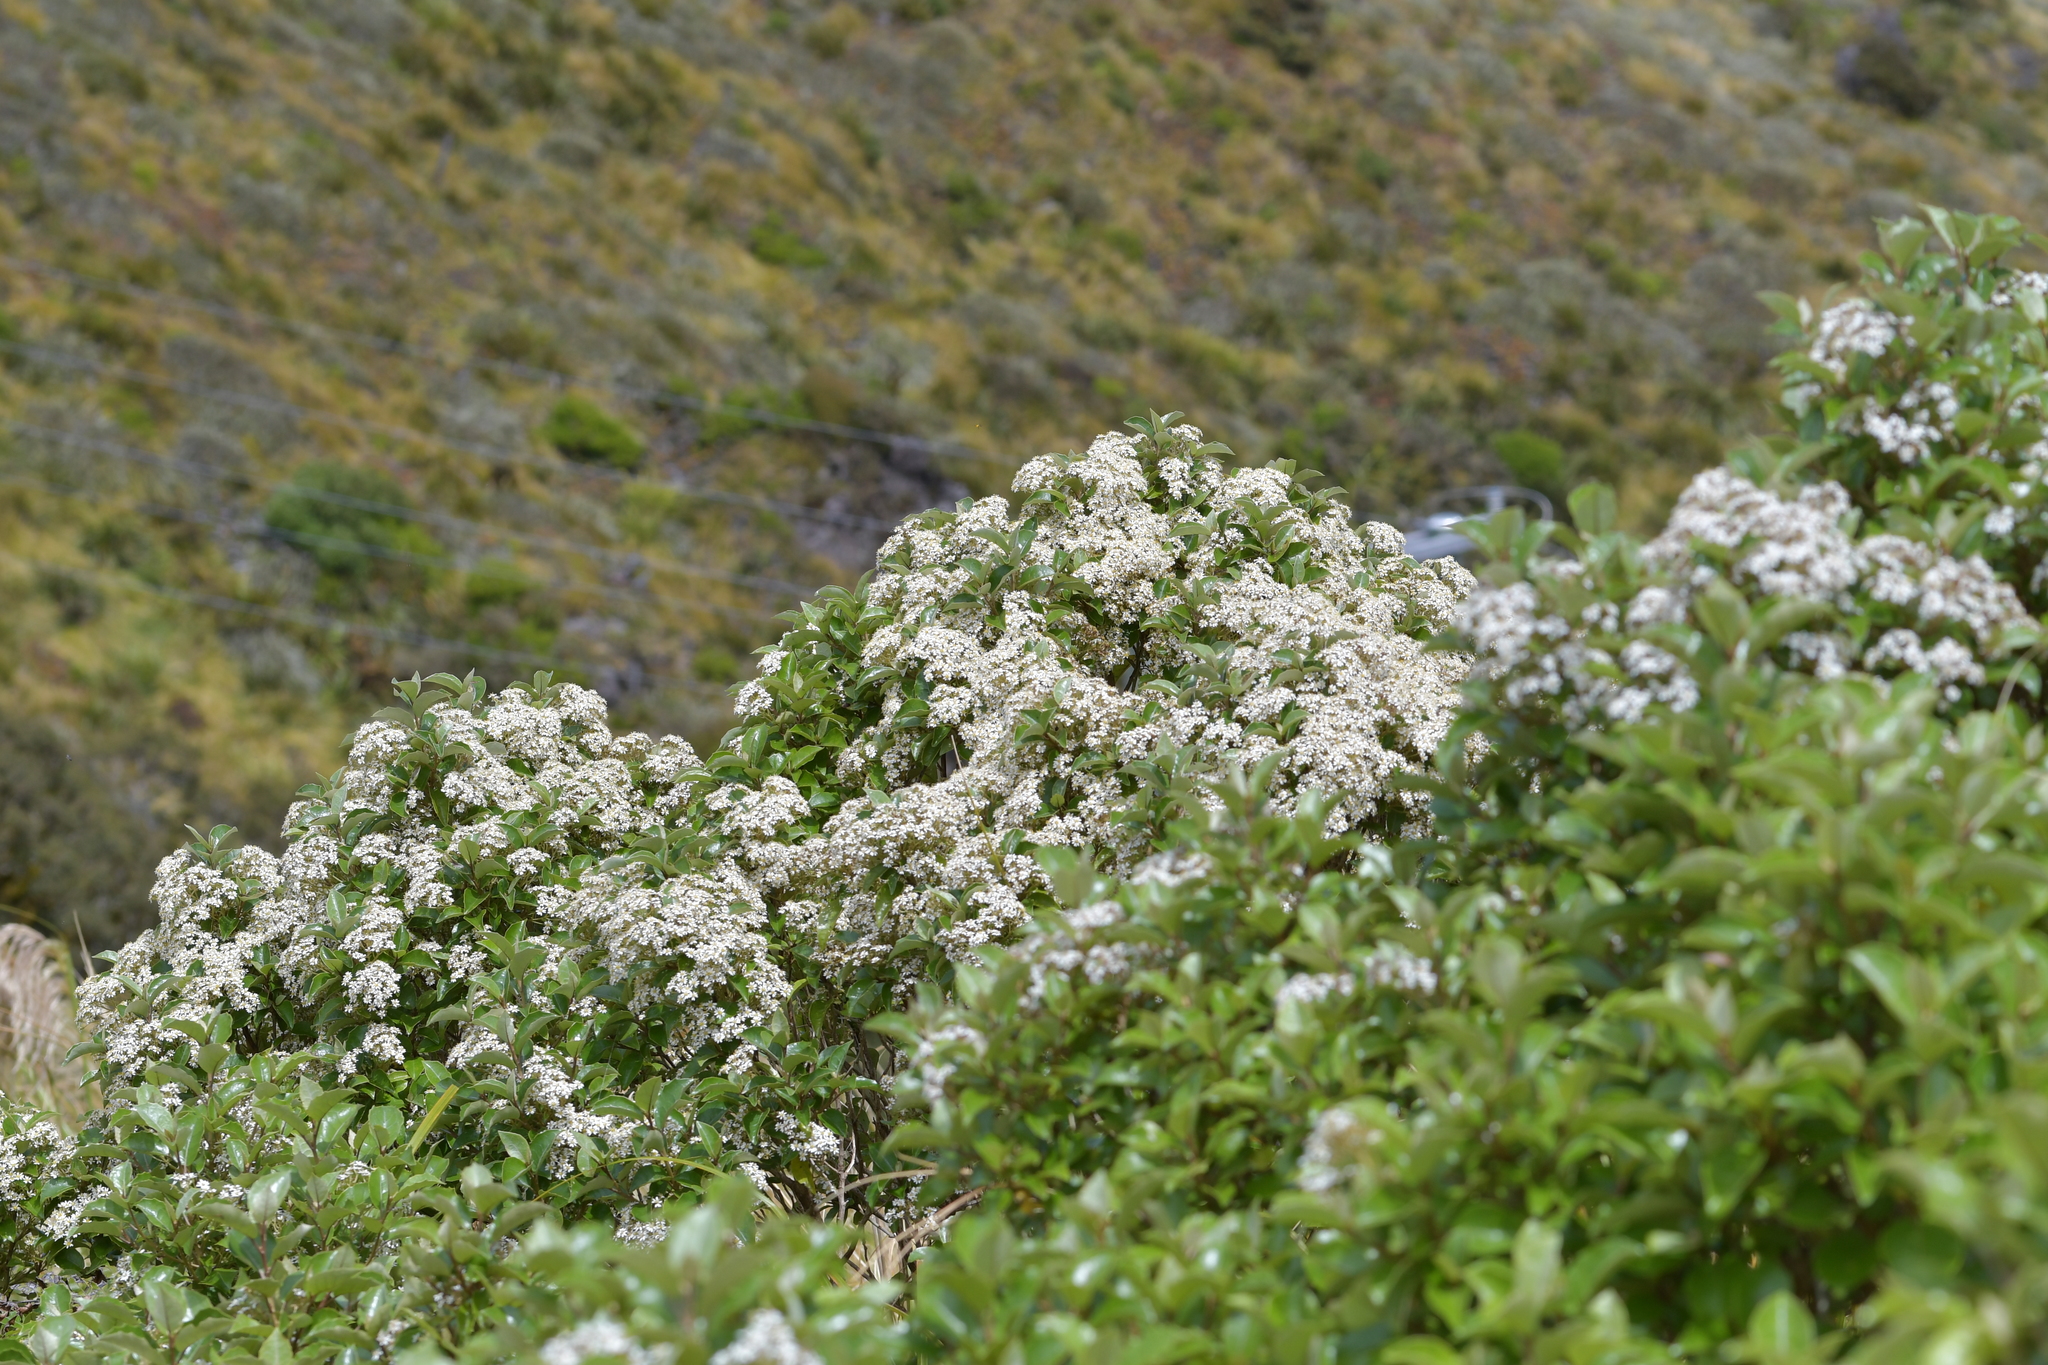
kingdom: Plantae
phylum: Tracheophyta
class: Magnoliopsida
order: Asterales
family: Asteraceae
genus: Olearia
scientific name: Olearia arborescens
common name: Glossy tree daisy
